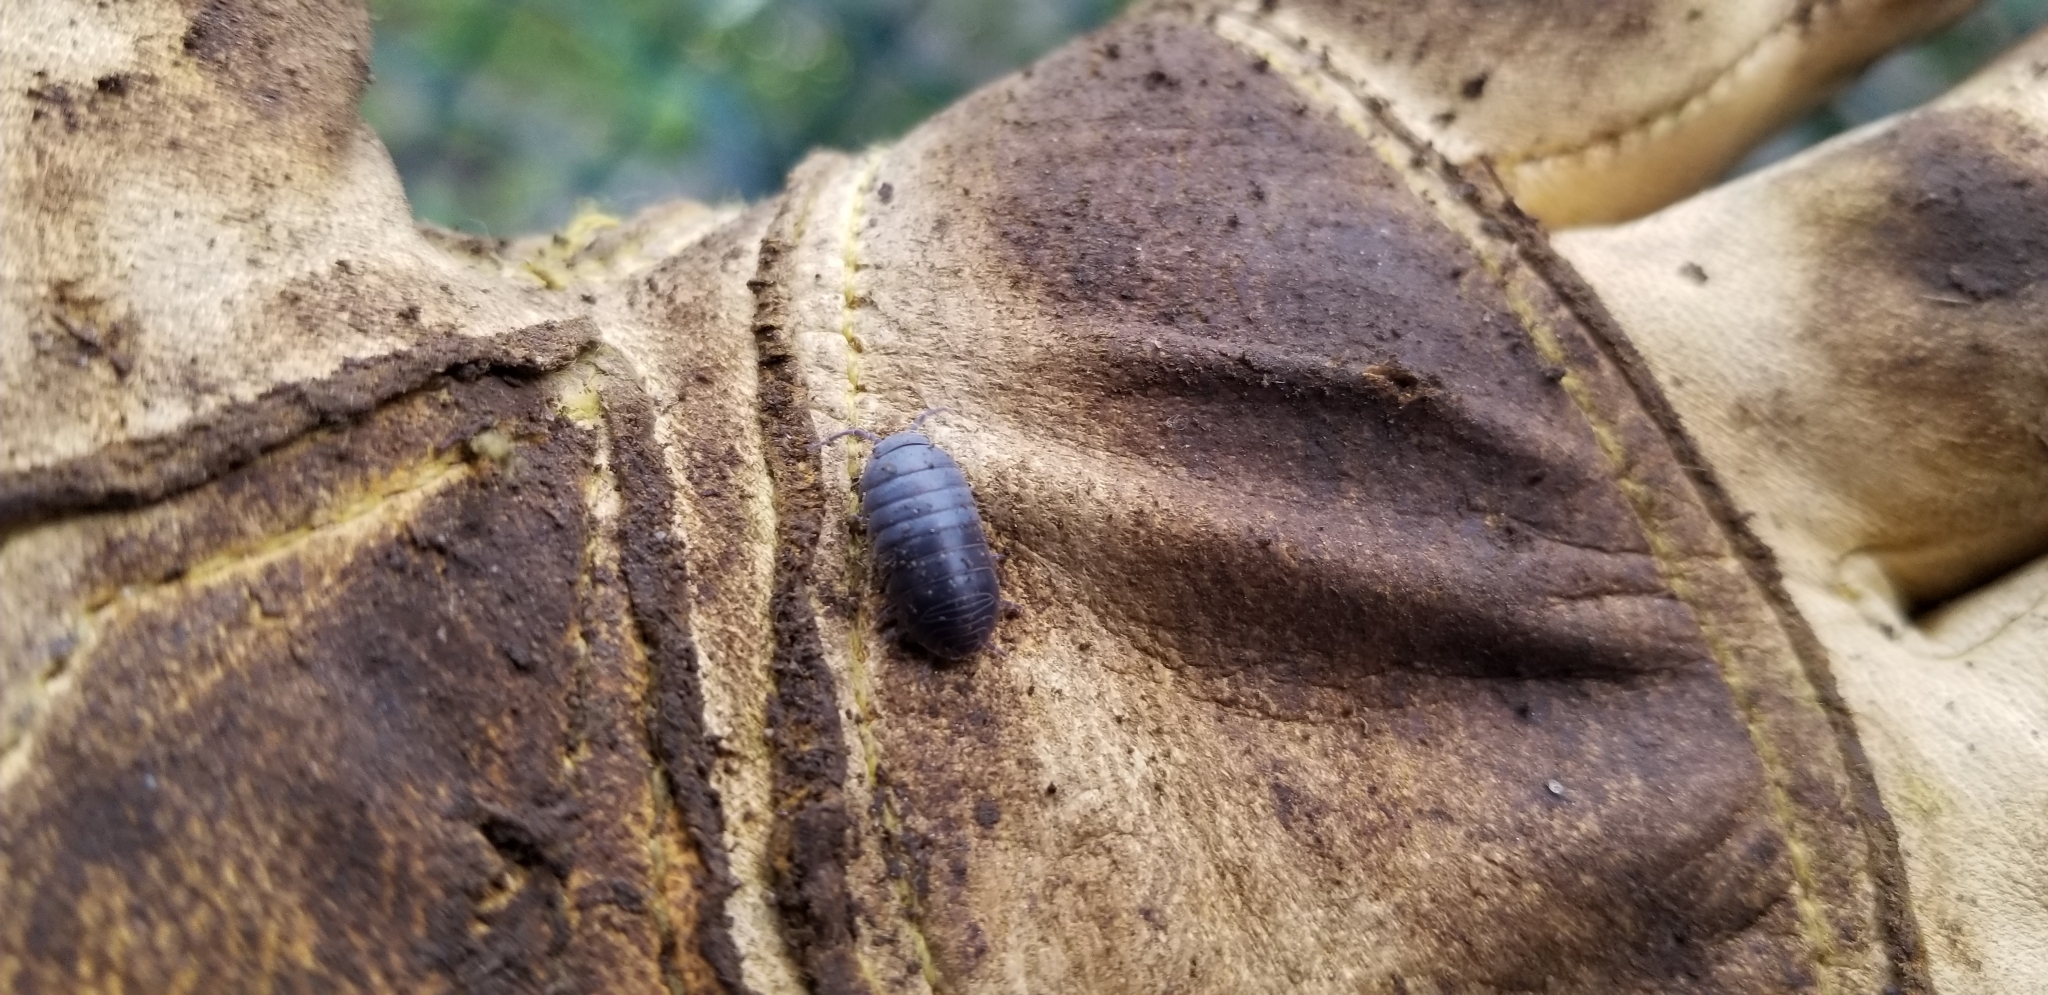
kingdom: Animalia
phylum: Arthropoda
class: Malacostraca
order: Isopoda
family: Armadillidiidae
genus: Armadillidium
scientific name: Armadillidium vulgare
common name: Common pill woodlouse
